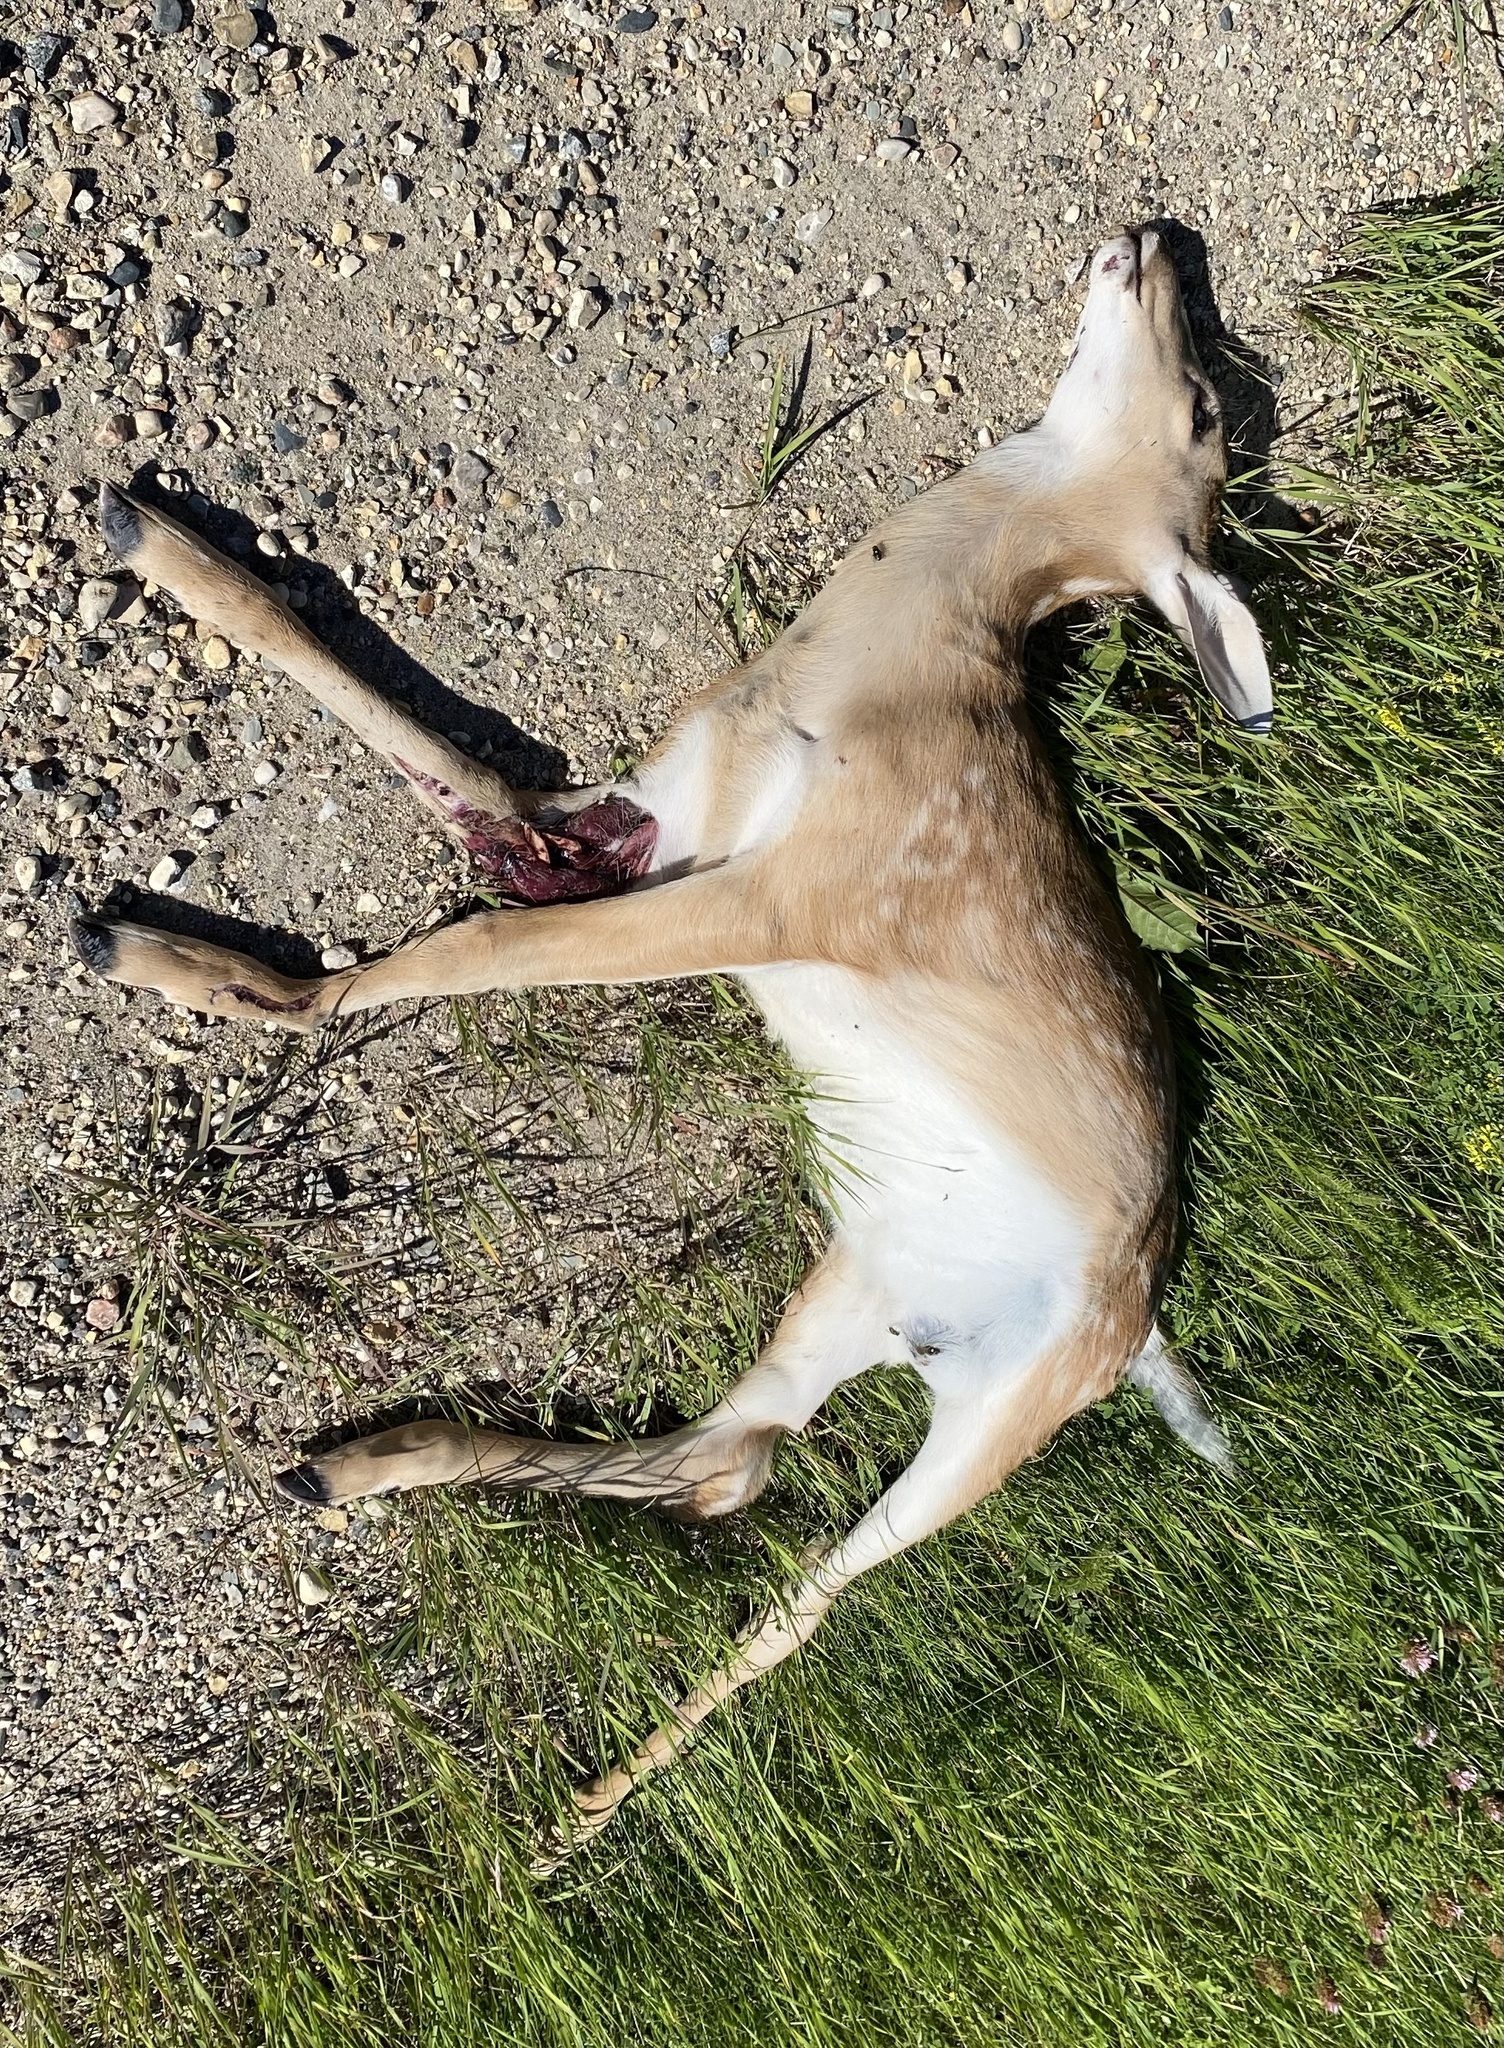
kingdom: Animalia
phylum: Chordata
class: Mammalia
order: Artiodactyla
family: Cervidae
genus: Odocoileus
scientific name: Odocoileus virginianus
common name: White-tailed deer
